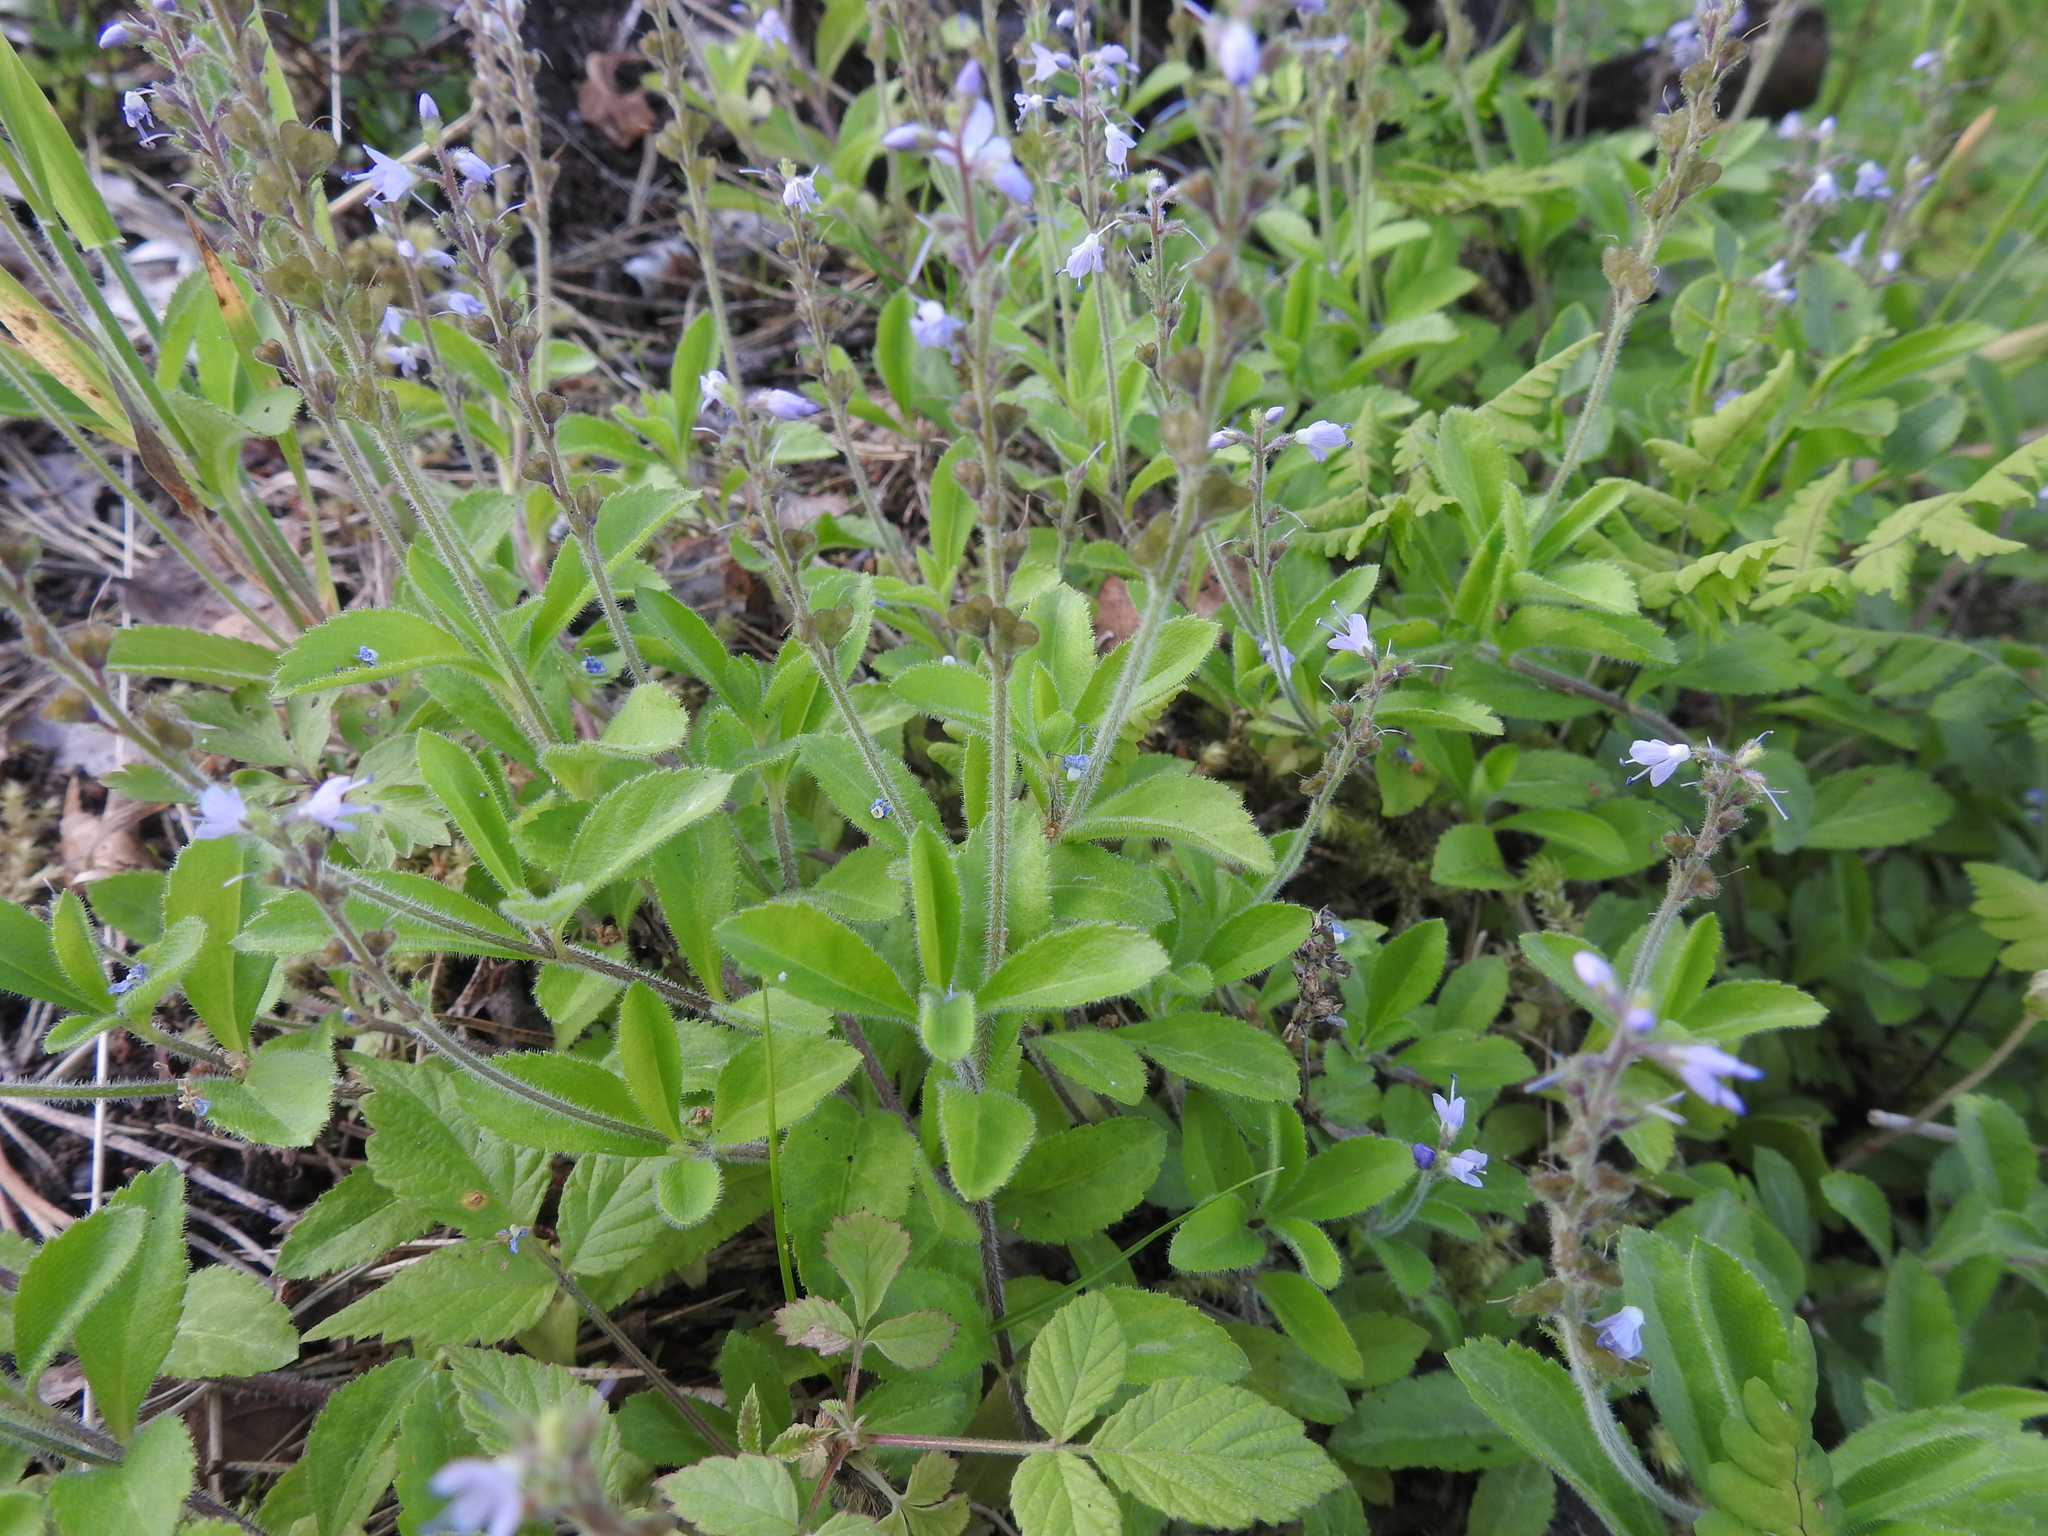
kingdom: Plantae
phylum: Tracheophyta
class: Magnoliopsida
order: Lamiales
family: Plantaginaceae
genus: Veronica
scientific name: Veronica officinalis
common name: Common speedwell
